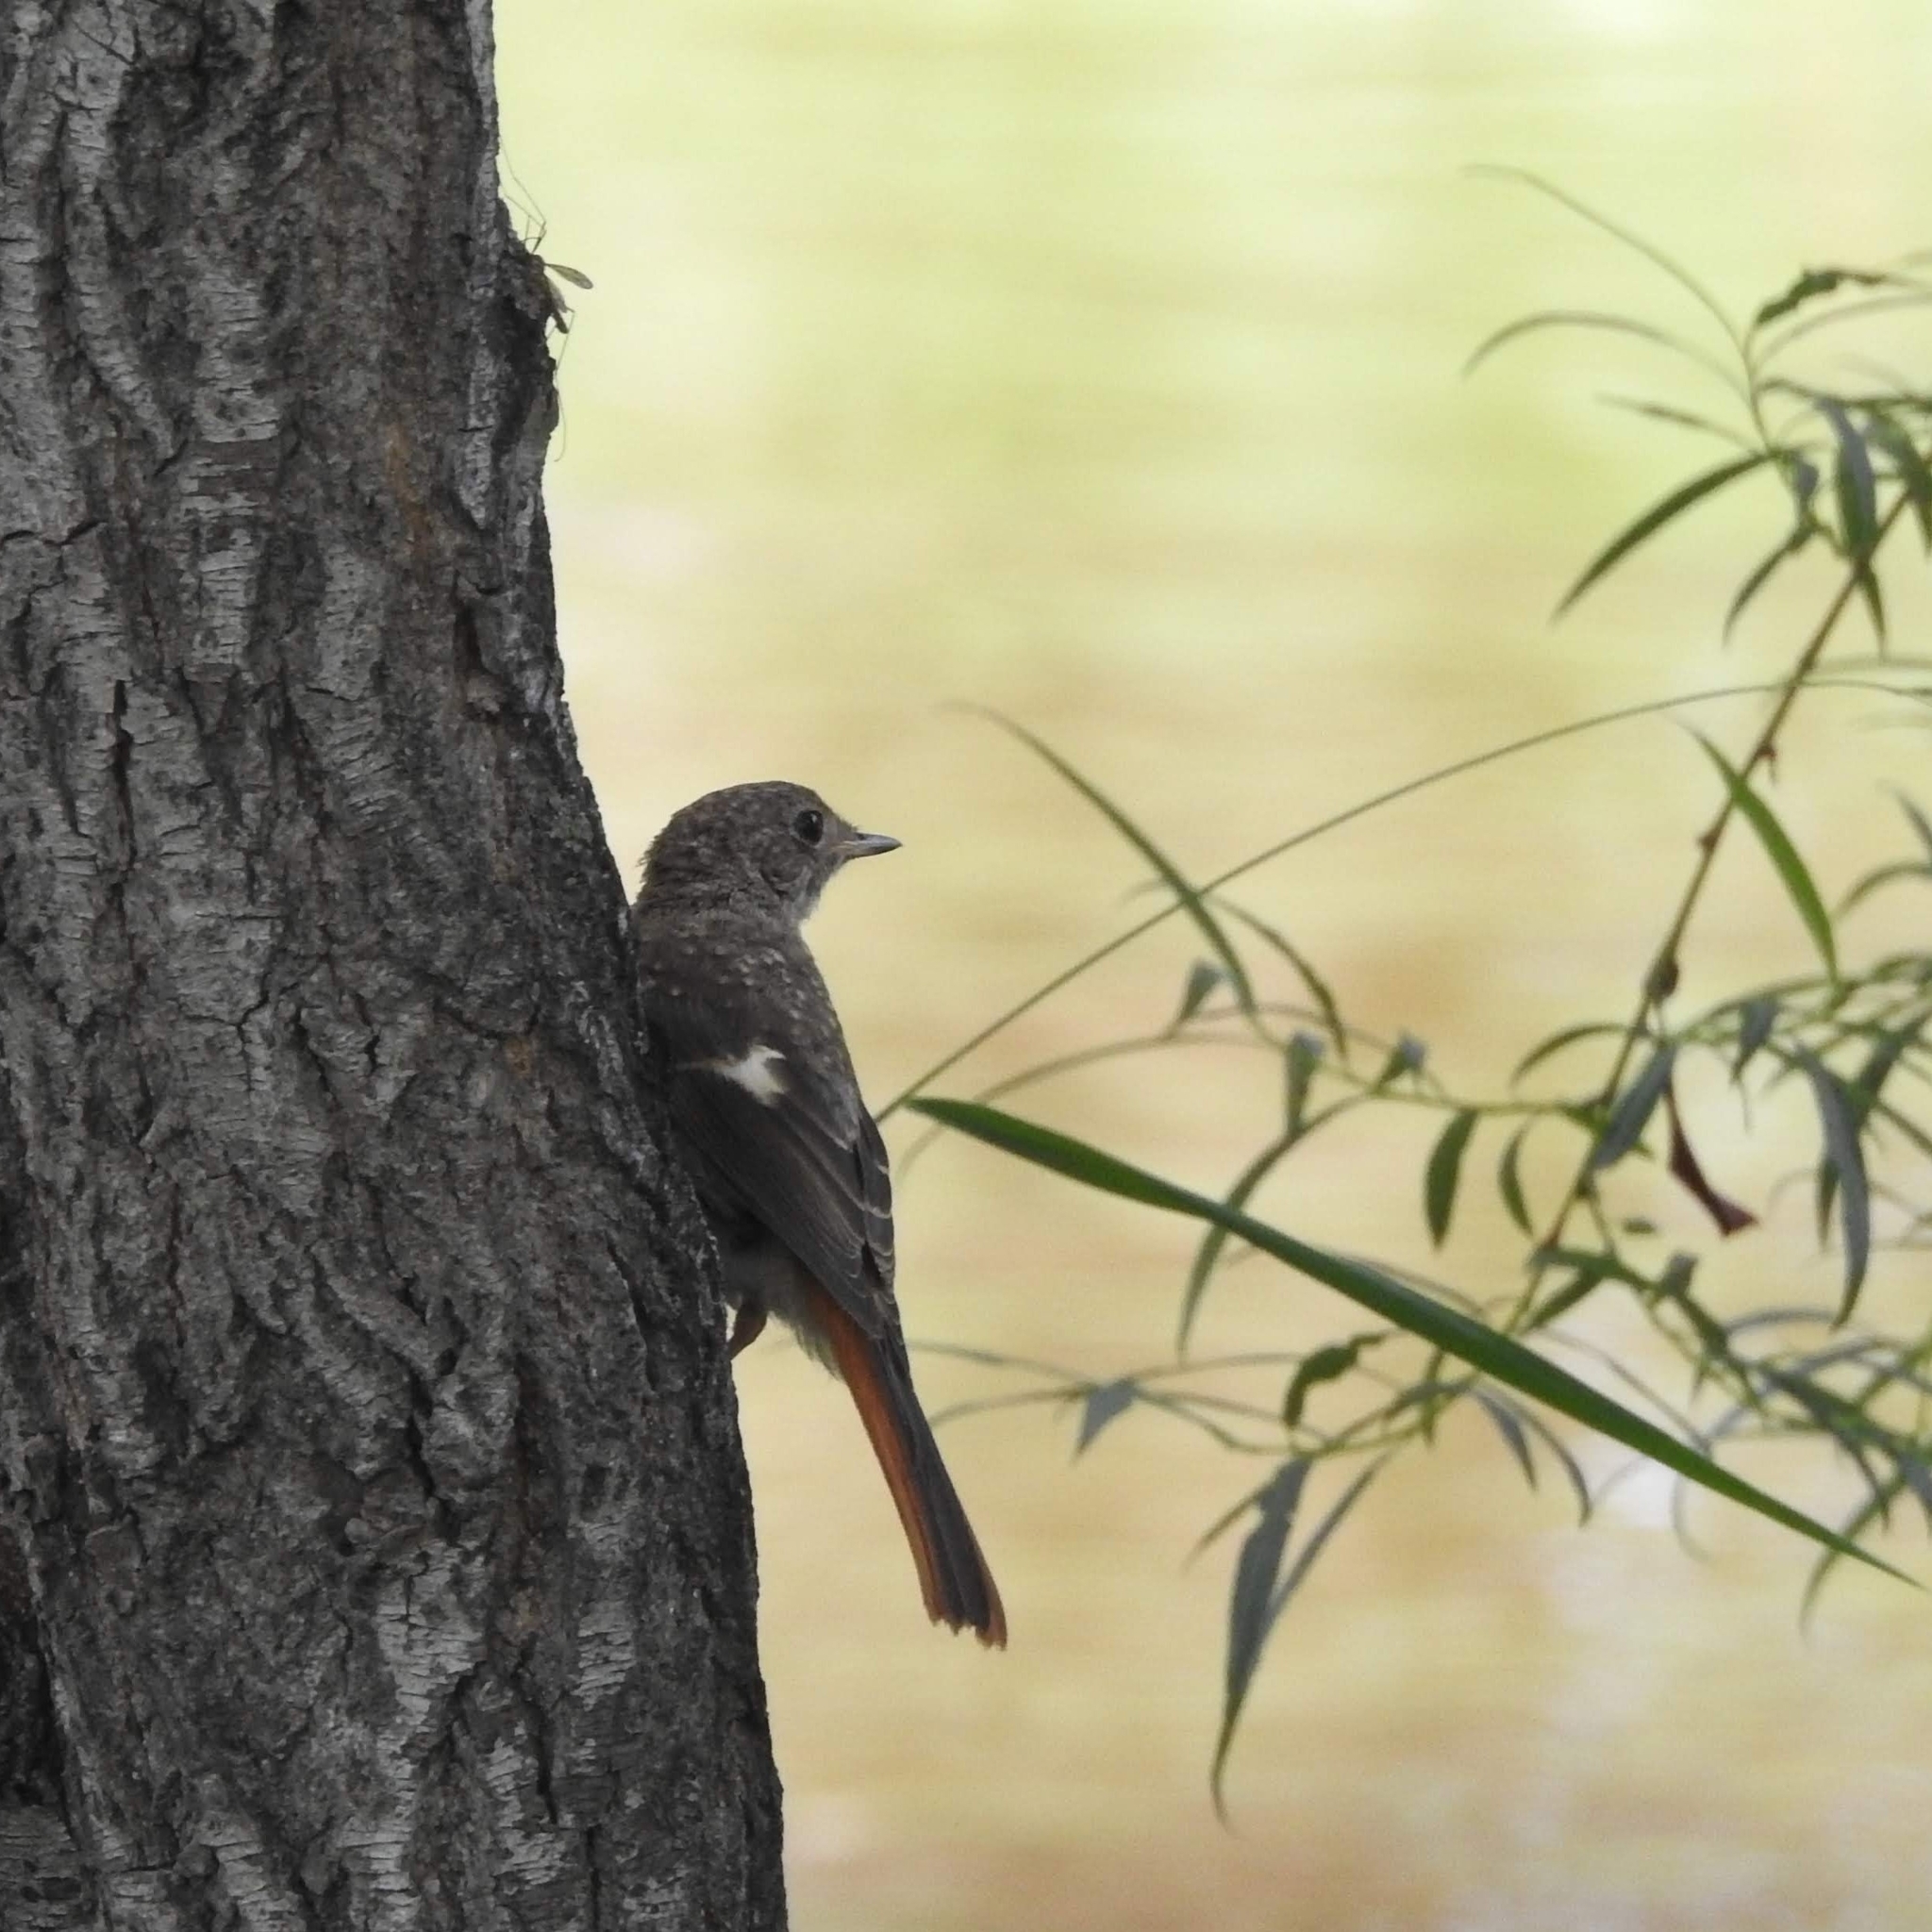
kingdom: Animalia
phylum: Chordata
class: Aves
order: Passeriformes
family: Muscicapidae
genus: Phoenicurus
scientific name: Phoenicurus auroreus
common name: Daurian redstart
